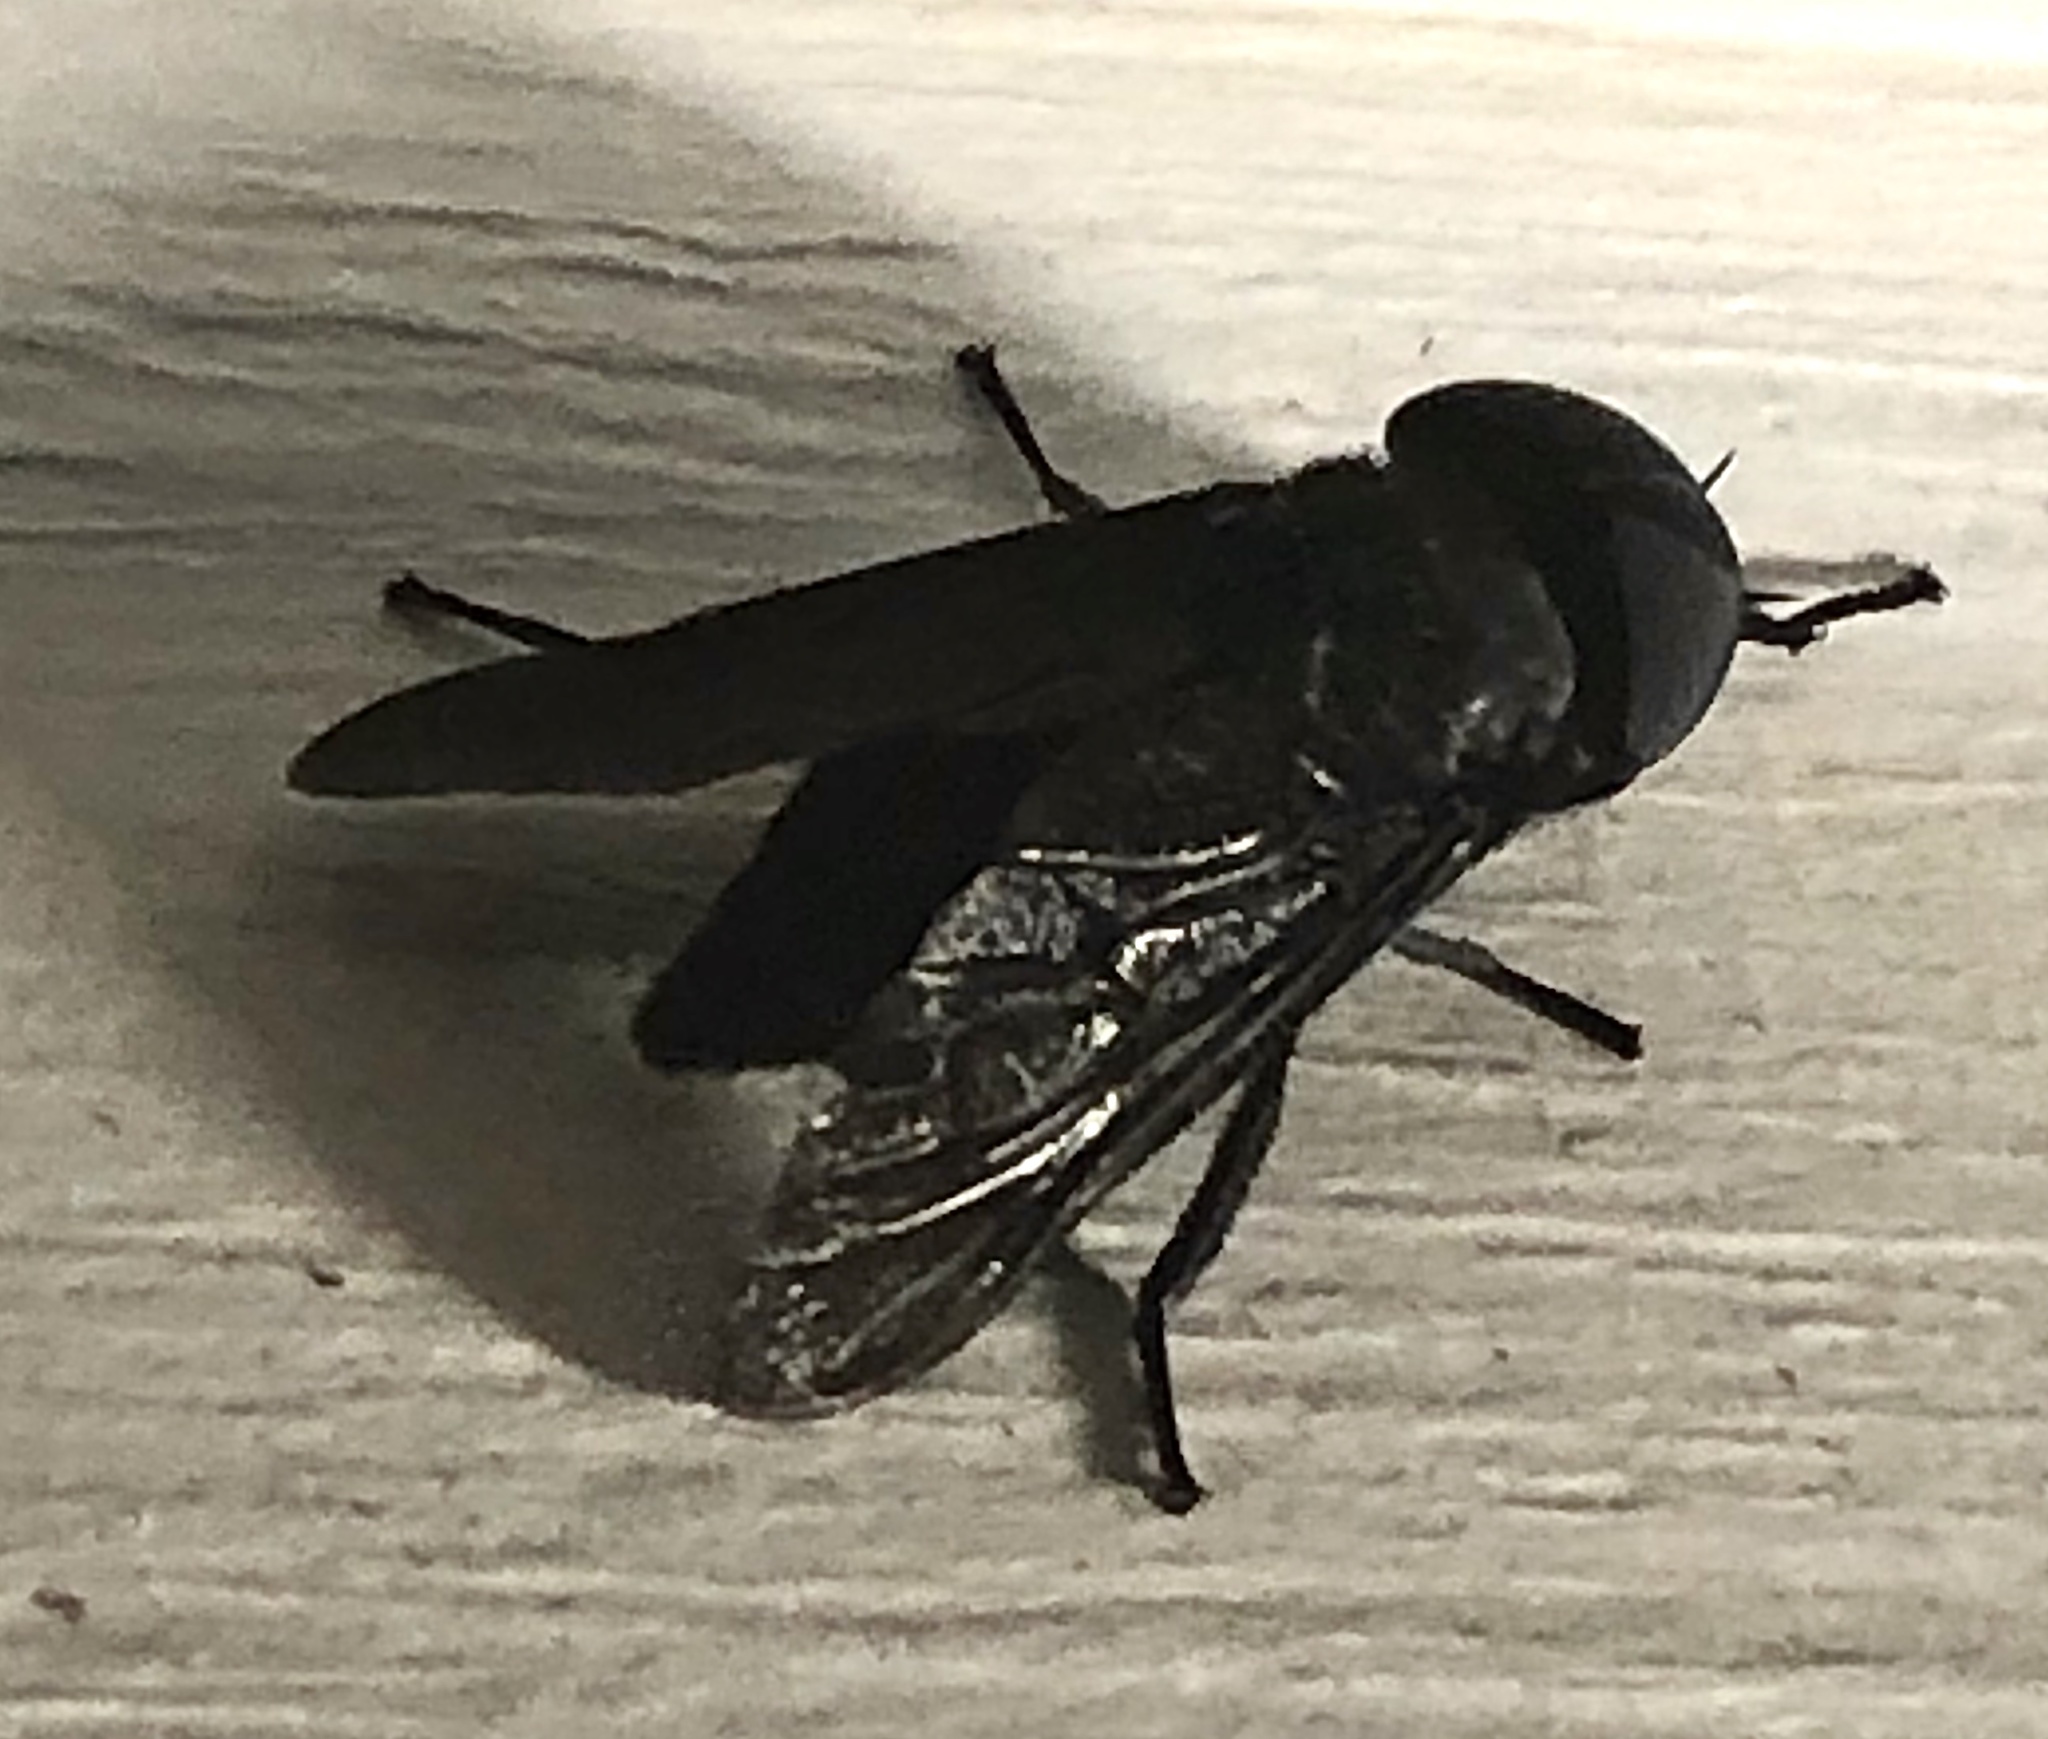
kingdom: Animalia
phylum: Arthropoda
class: Insecta
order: Diptera
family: Tabanidae
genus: Tabanus
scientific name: Tabanus atratus
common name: Black horse fly
